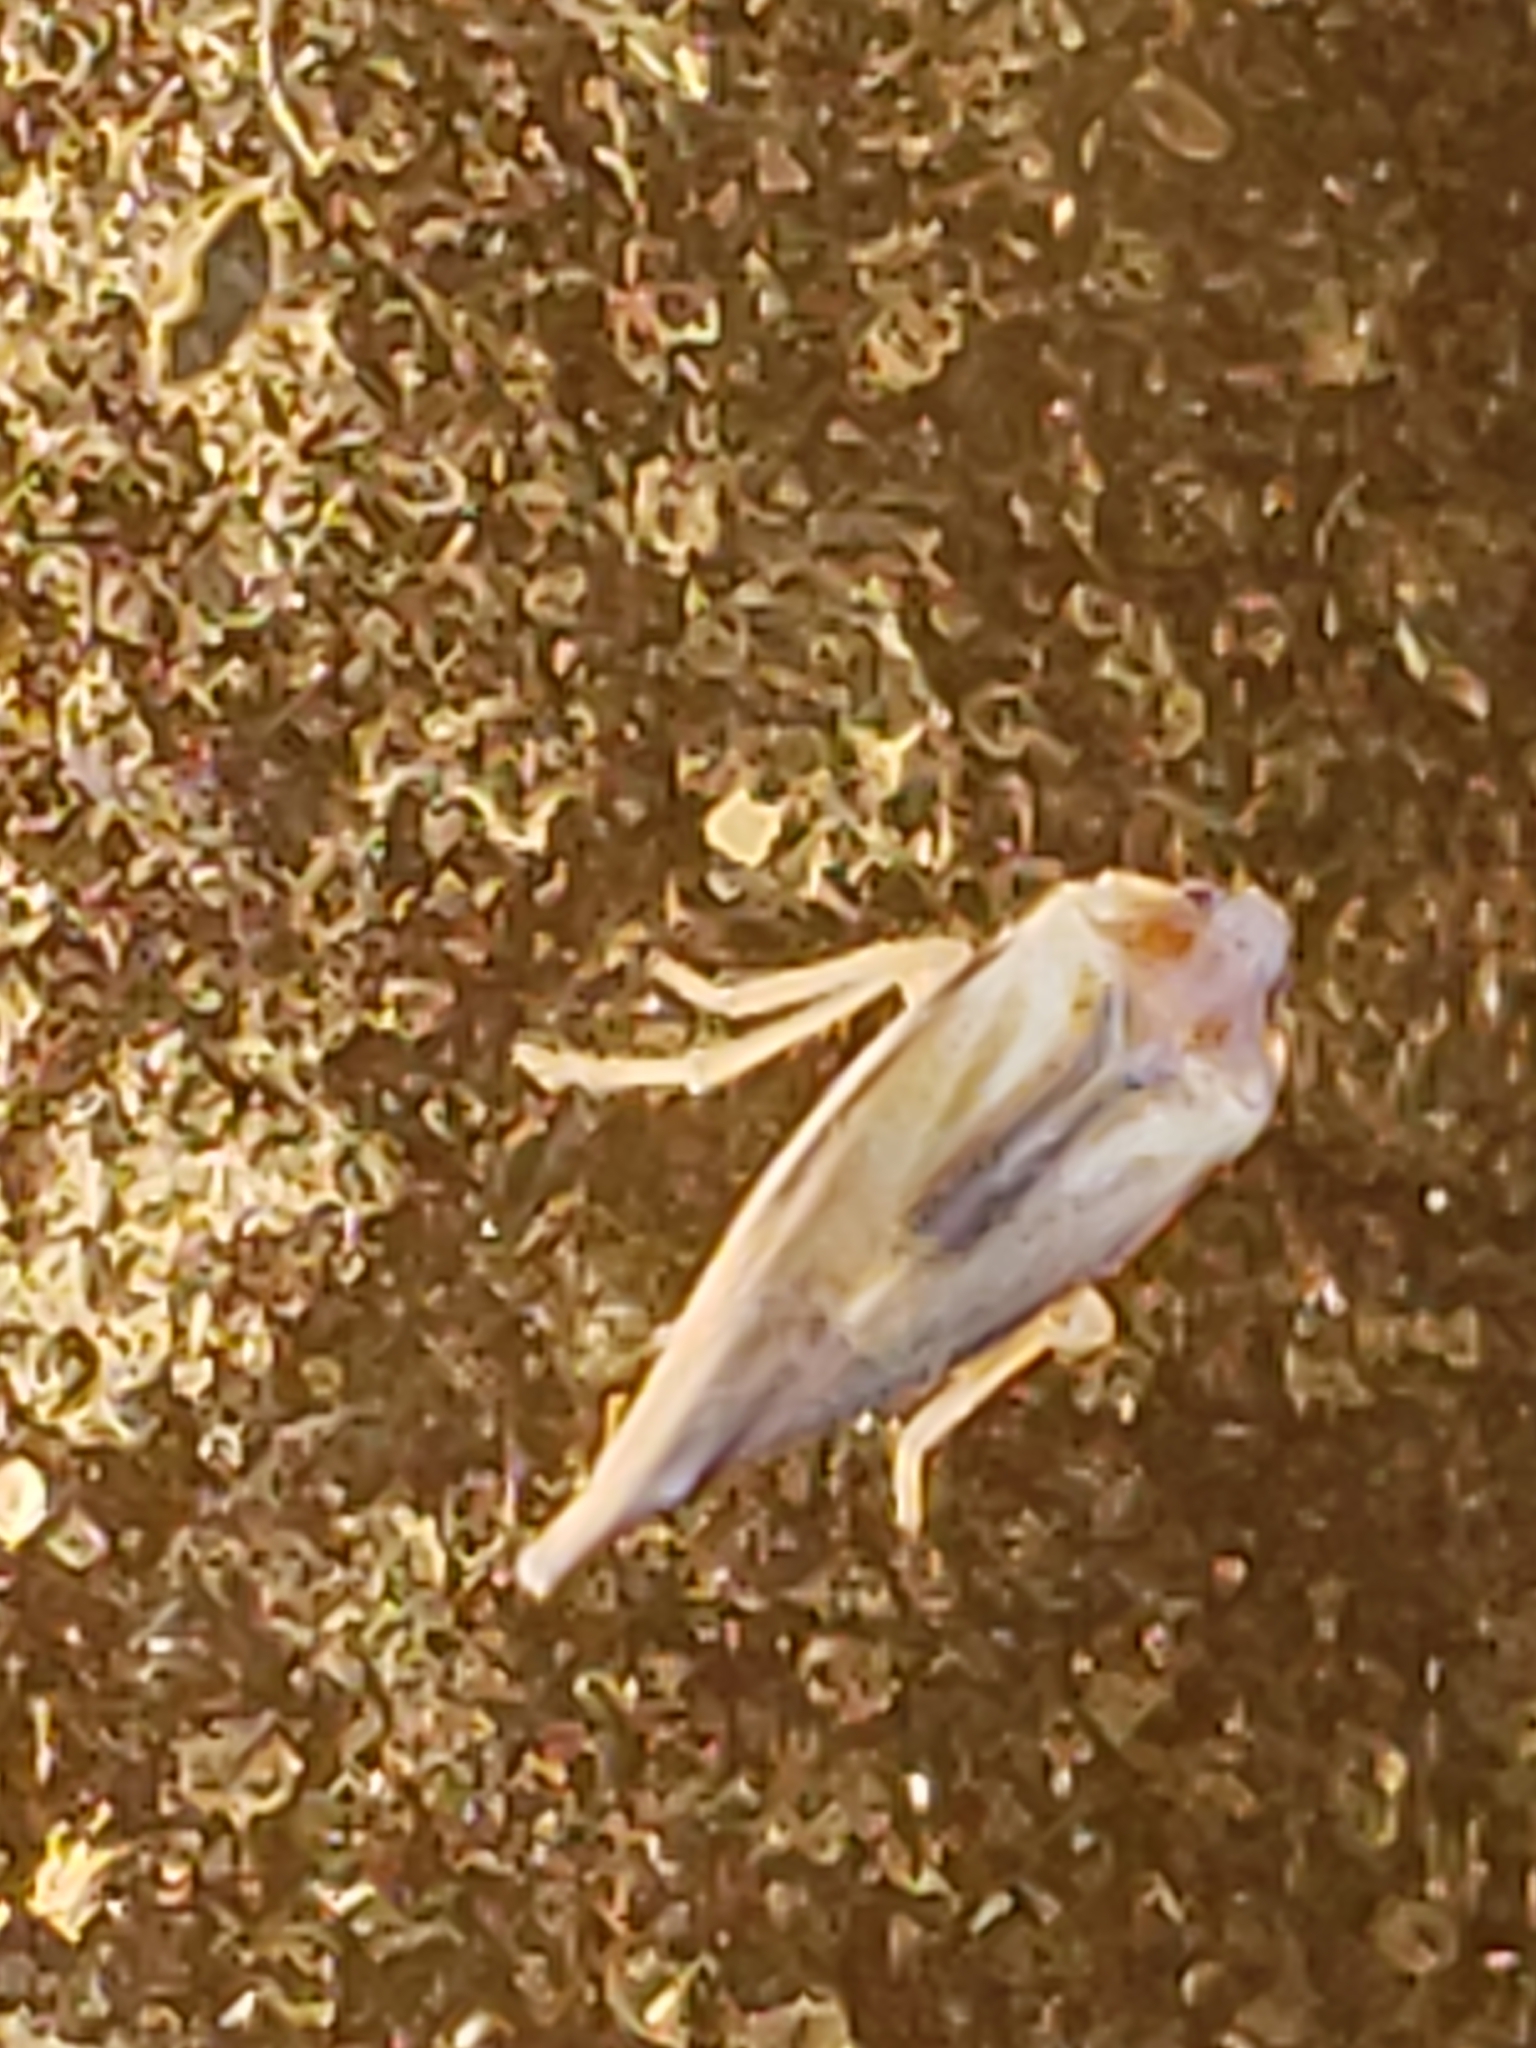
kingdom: Animalia
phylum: Arthropoda
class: Insecta
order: Hemiptera
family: Derbidae
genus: Omolicna
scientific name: Omolicna uhleri
